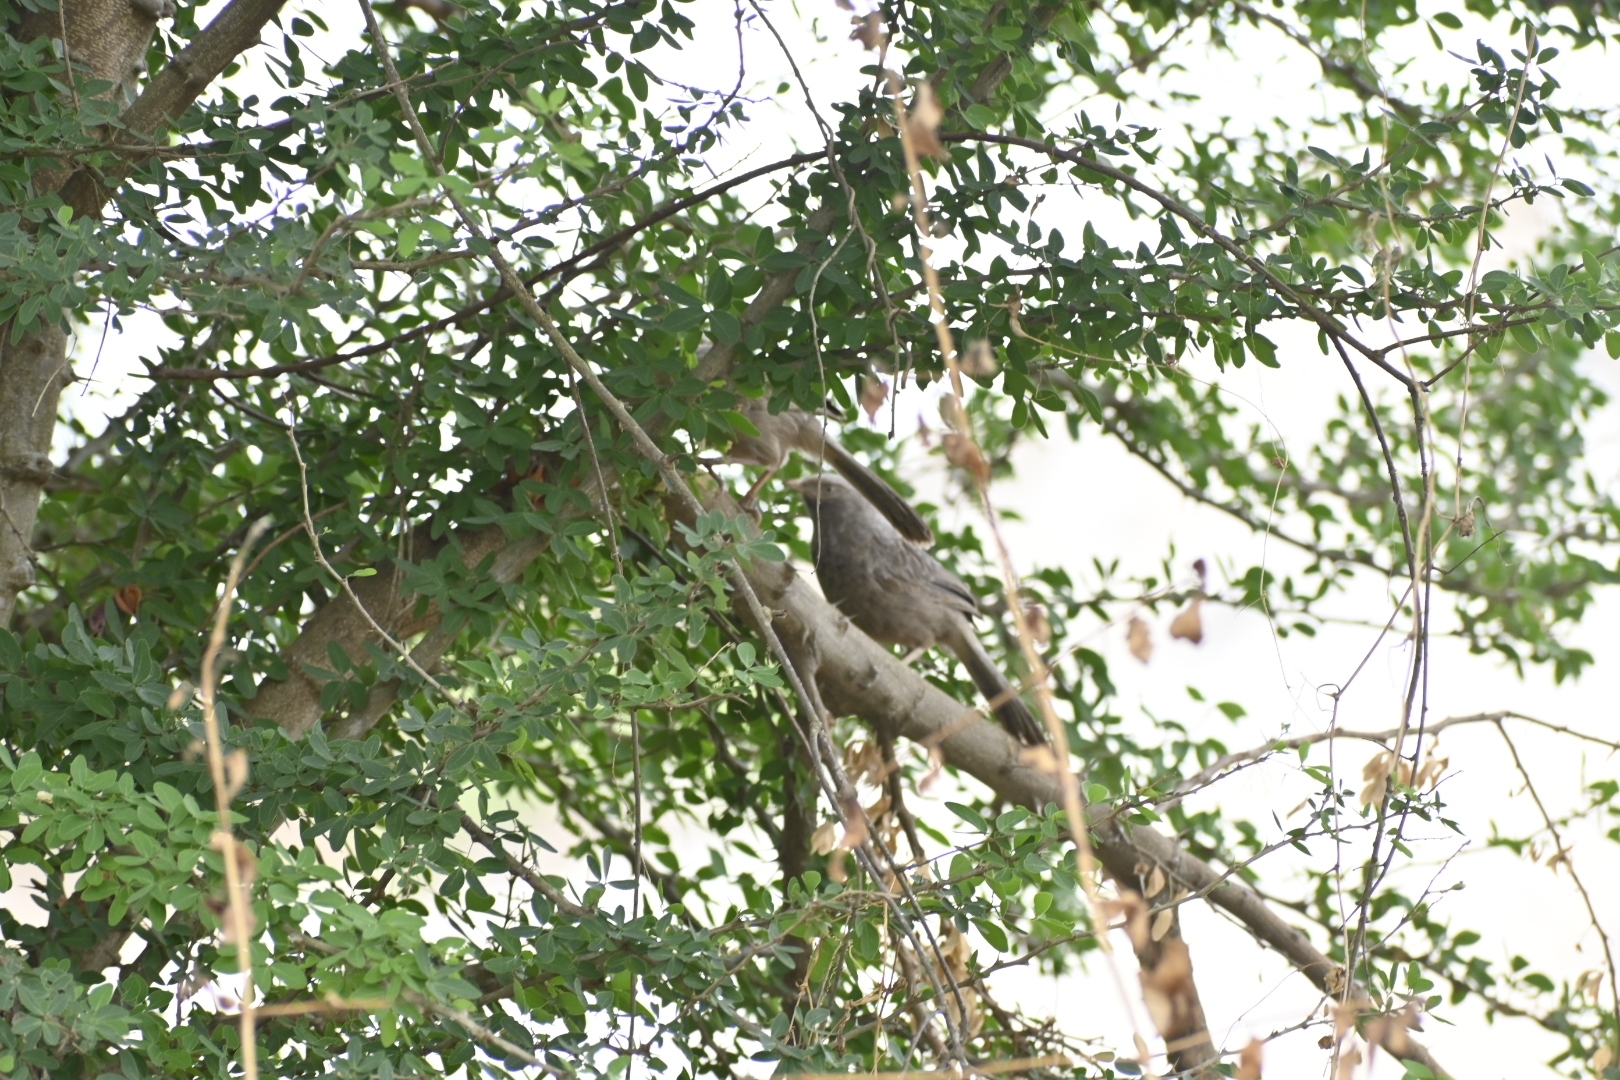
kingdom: Animalia
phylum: Chordata
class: Aves
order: Passeriformes
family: Leiothrichidae
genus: Turdoides
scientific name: Turdoides striata
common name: Jungle babbler
